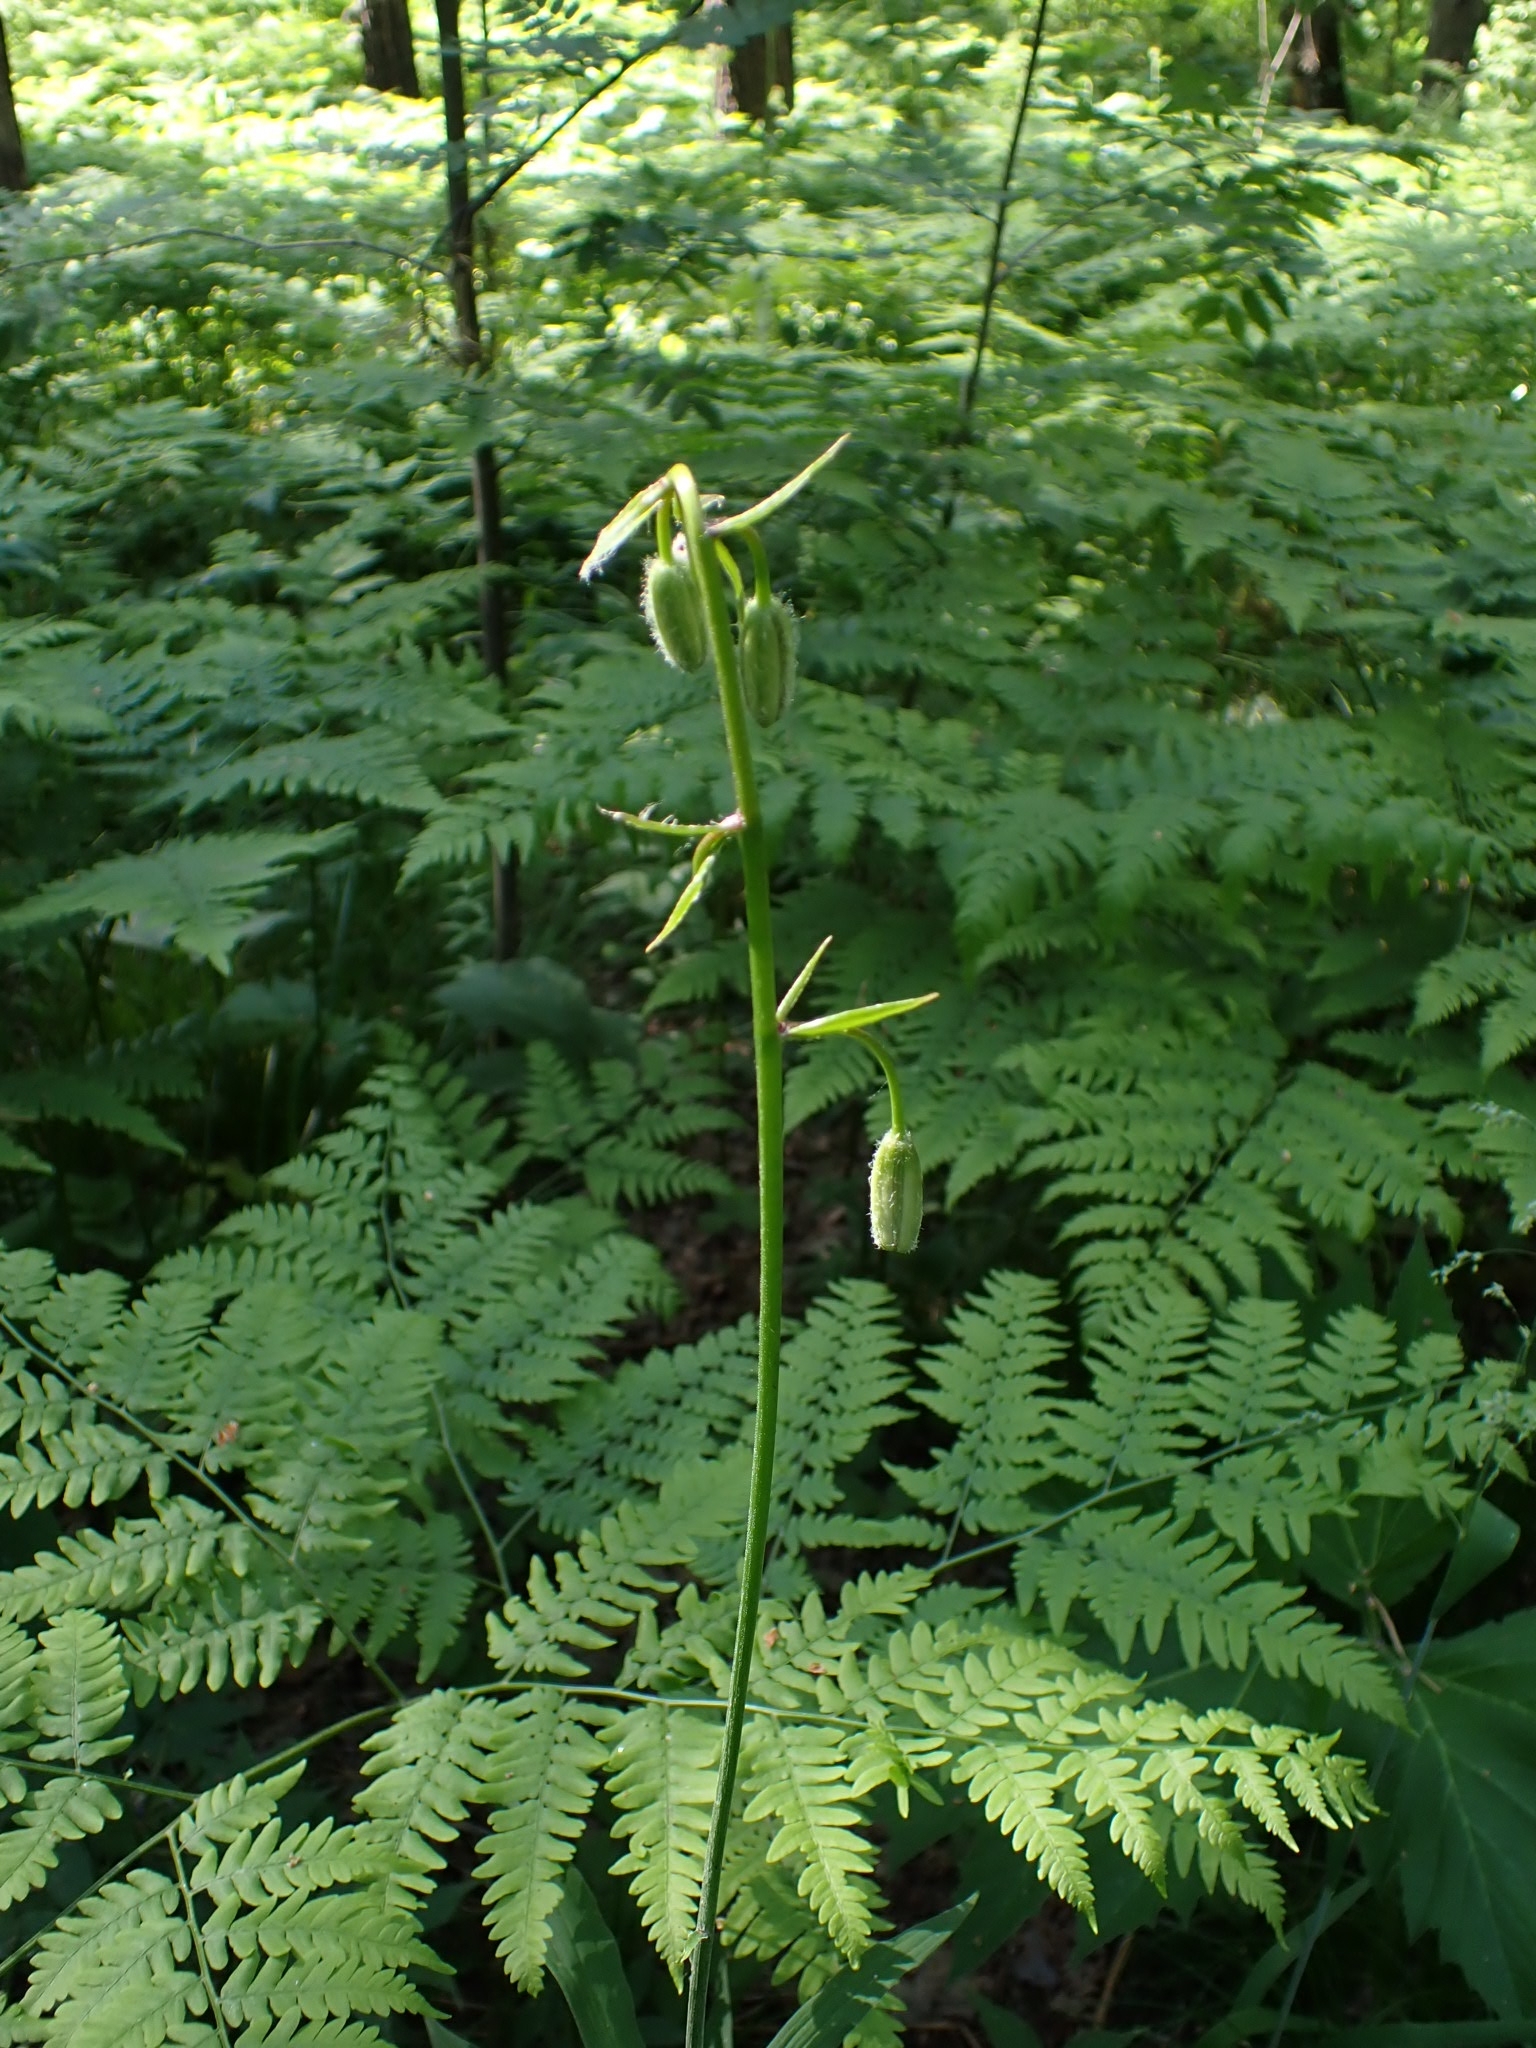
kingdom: Plantae
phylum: Tracheophyta
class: Liliopsida
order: Liliales
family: Liliaceae
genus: Lilium
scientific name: Lilium martagon
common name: Martagon lily
